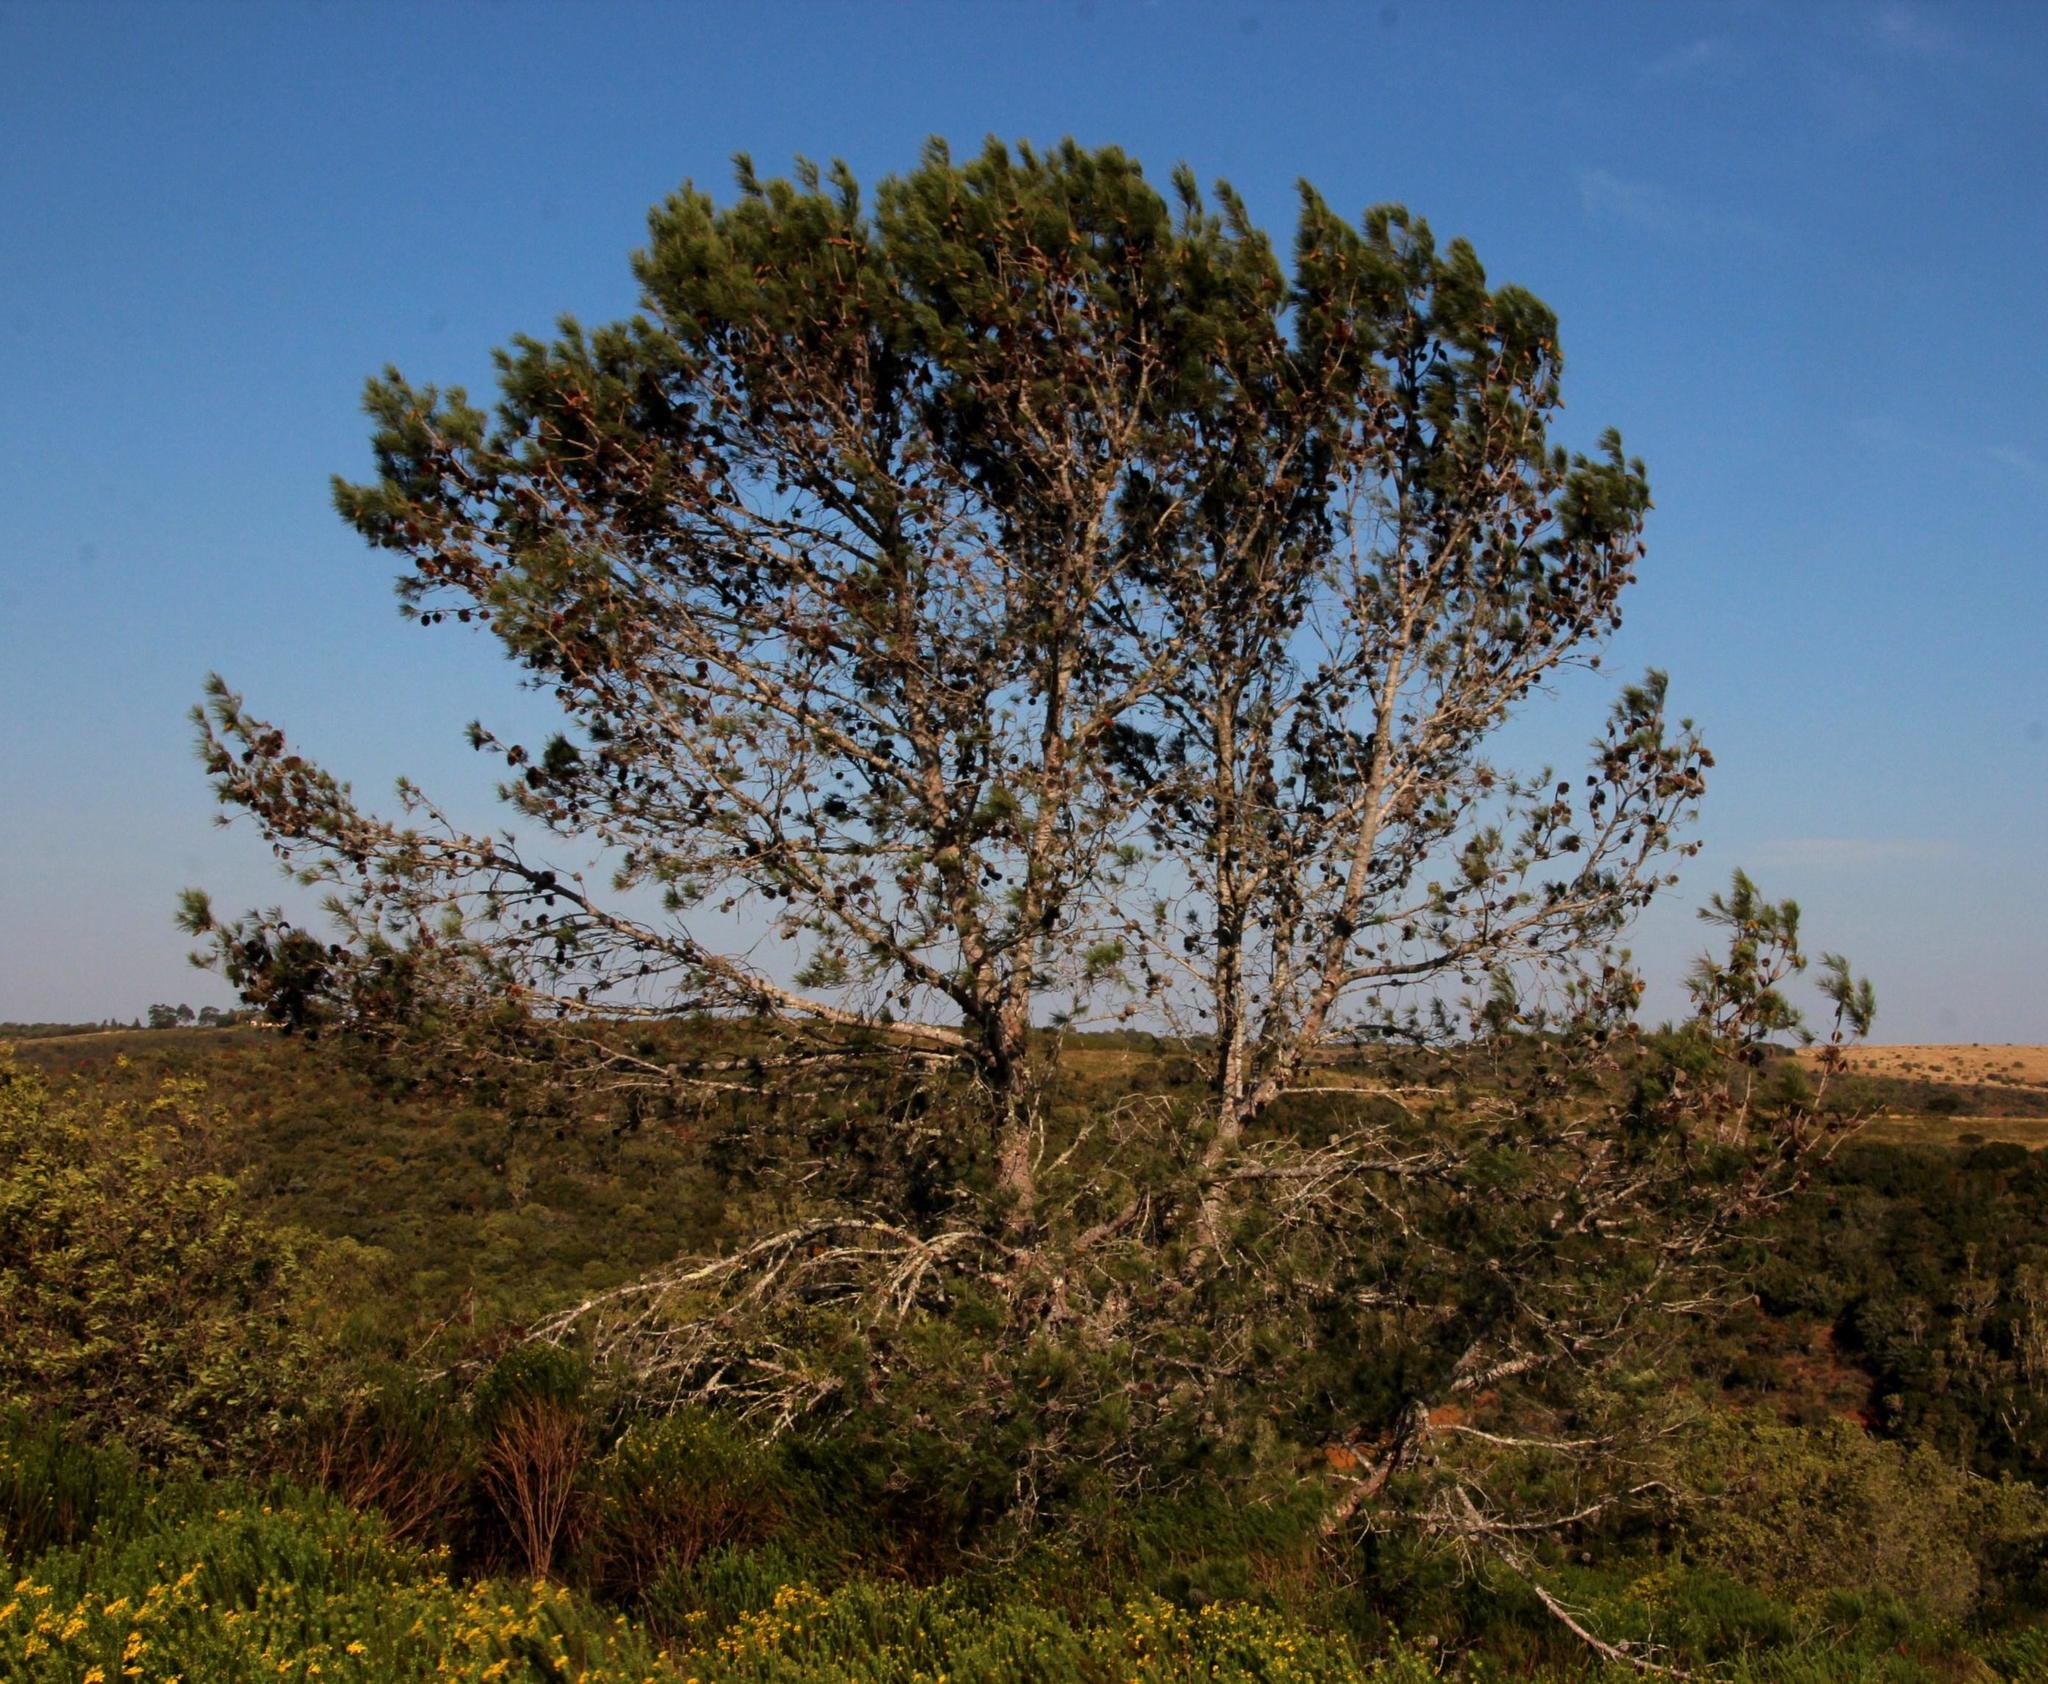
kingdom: Plantae
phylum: Tracheophyta
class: Pinopsida
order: Pinales
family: Pinaceae
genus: Pinus
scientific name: Pinus halepensis
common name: Aleppo pine
